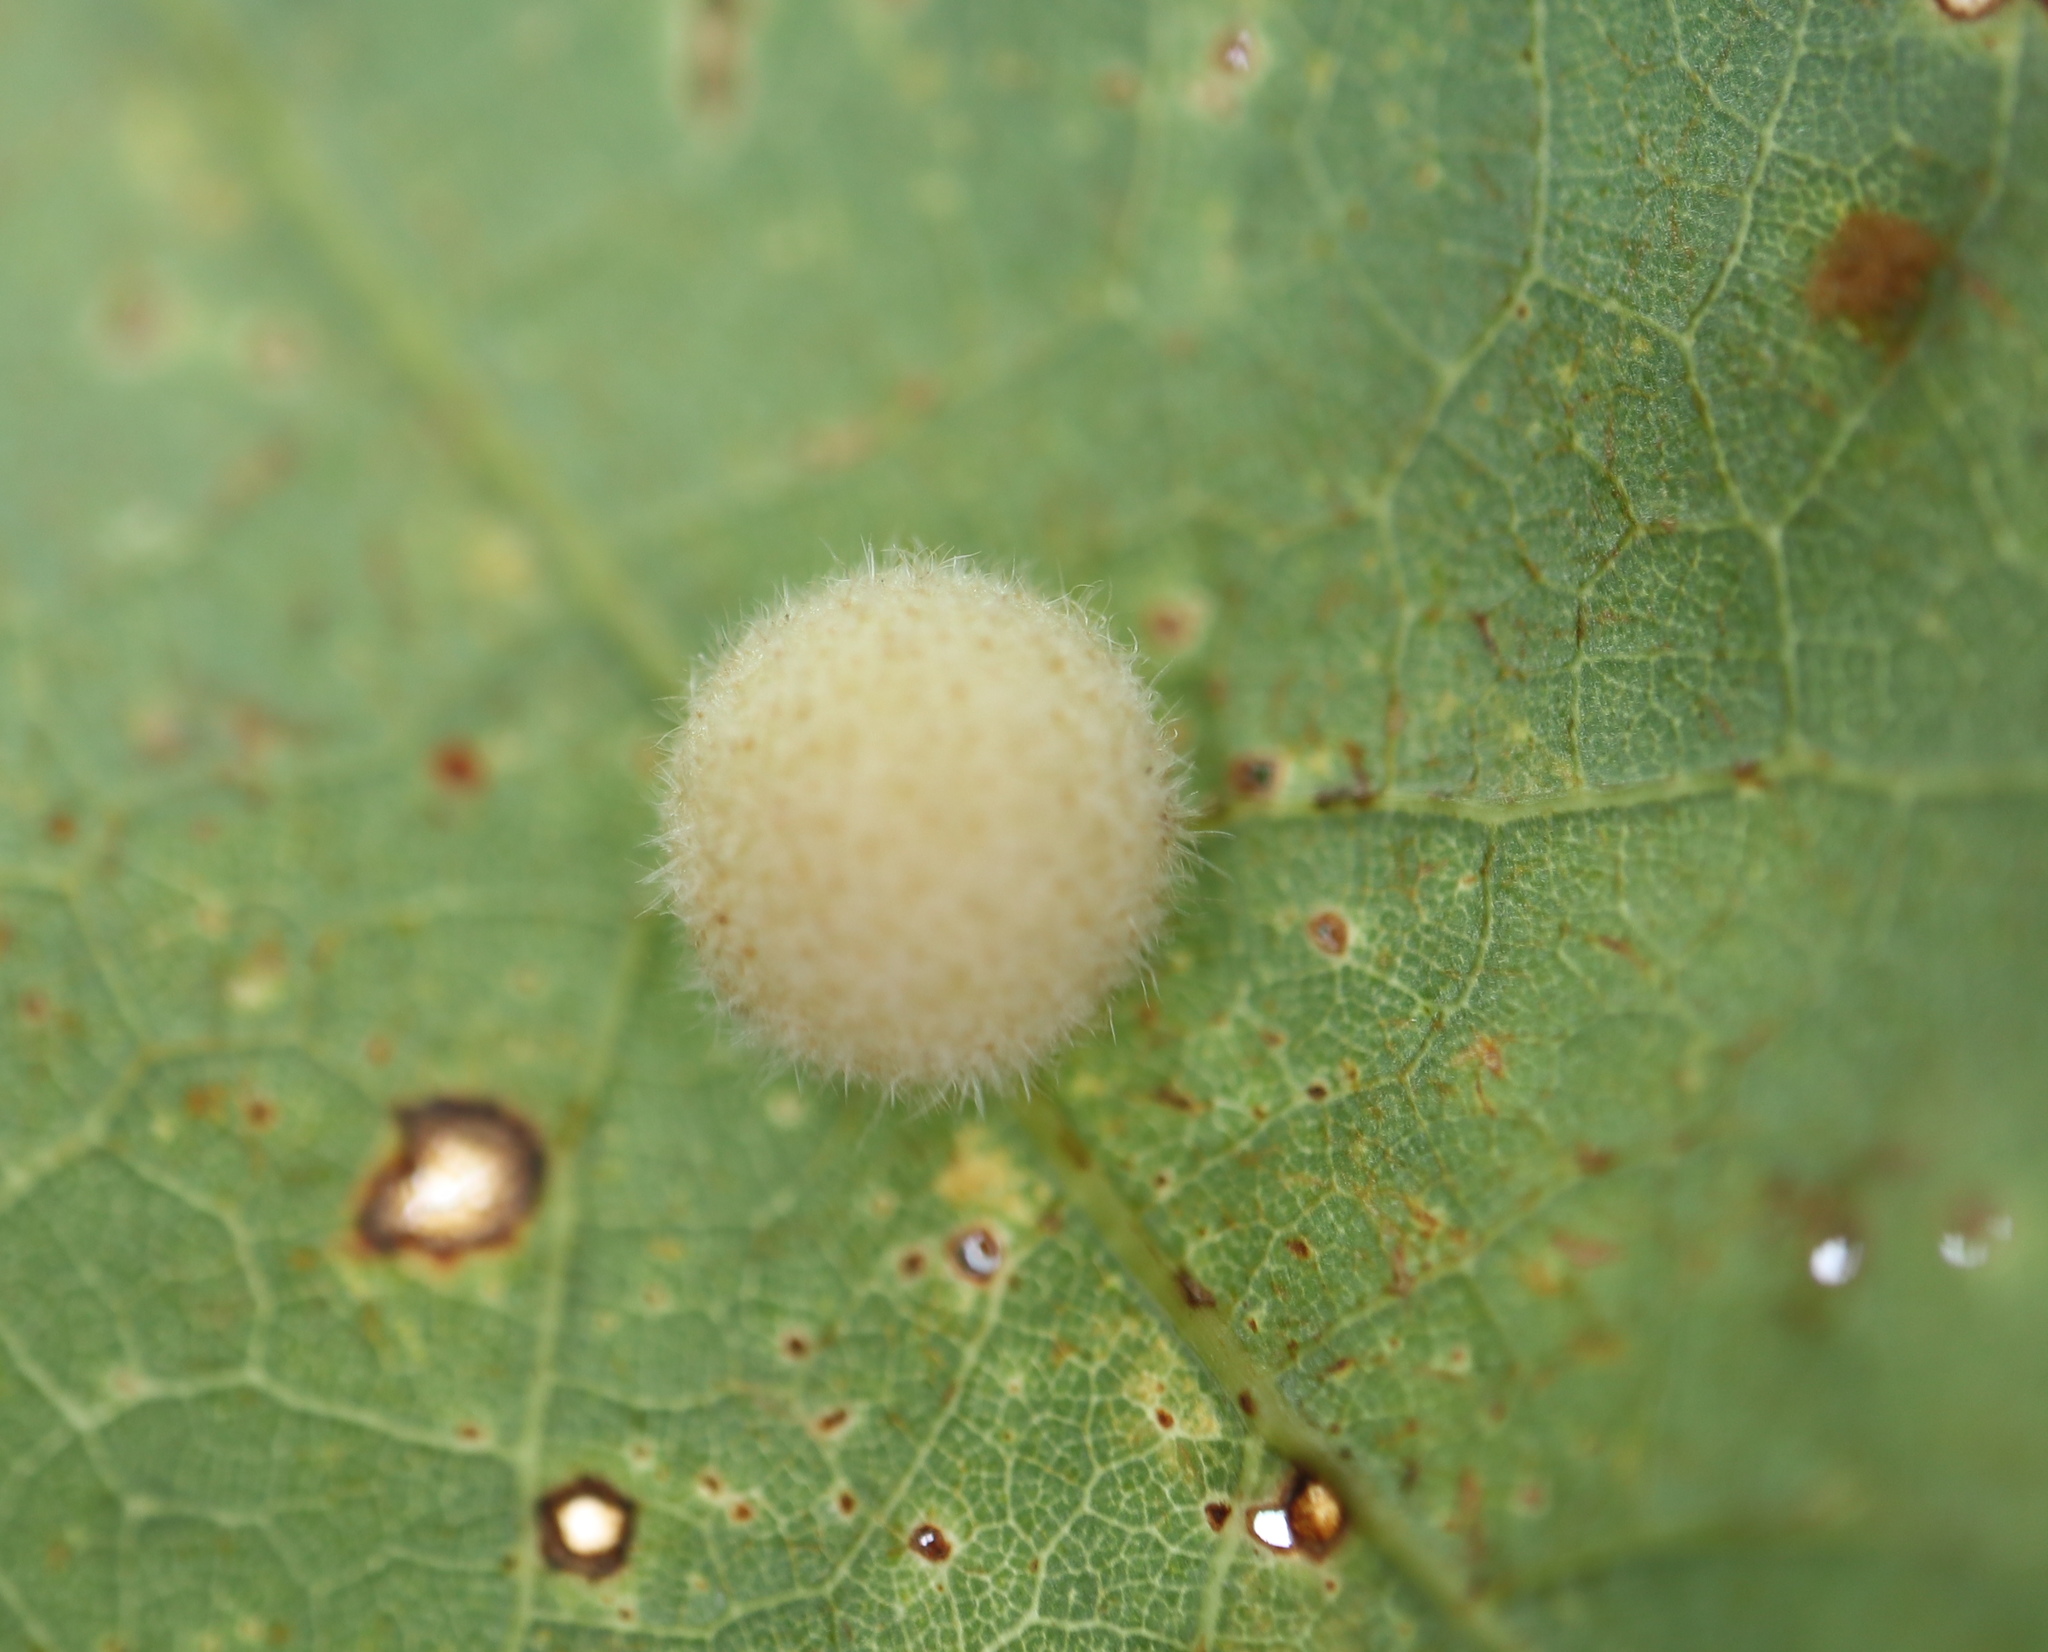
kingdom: Animalia
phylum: Arthropoda
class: Insecta
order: Hymenoptera
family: Cynipidae
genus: Philonix
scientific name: Philonix fulvicollis
